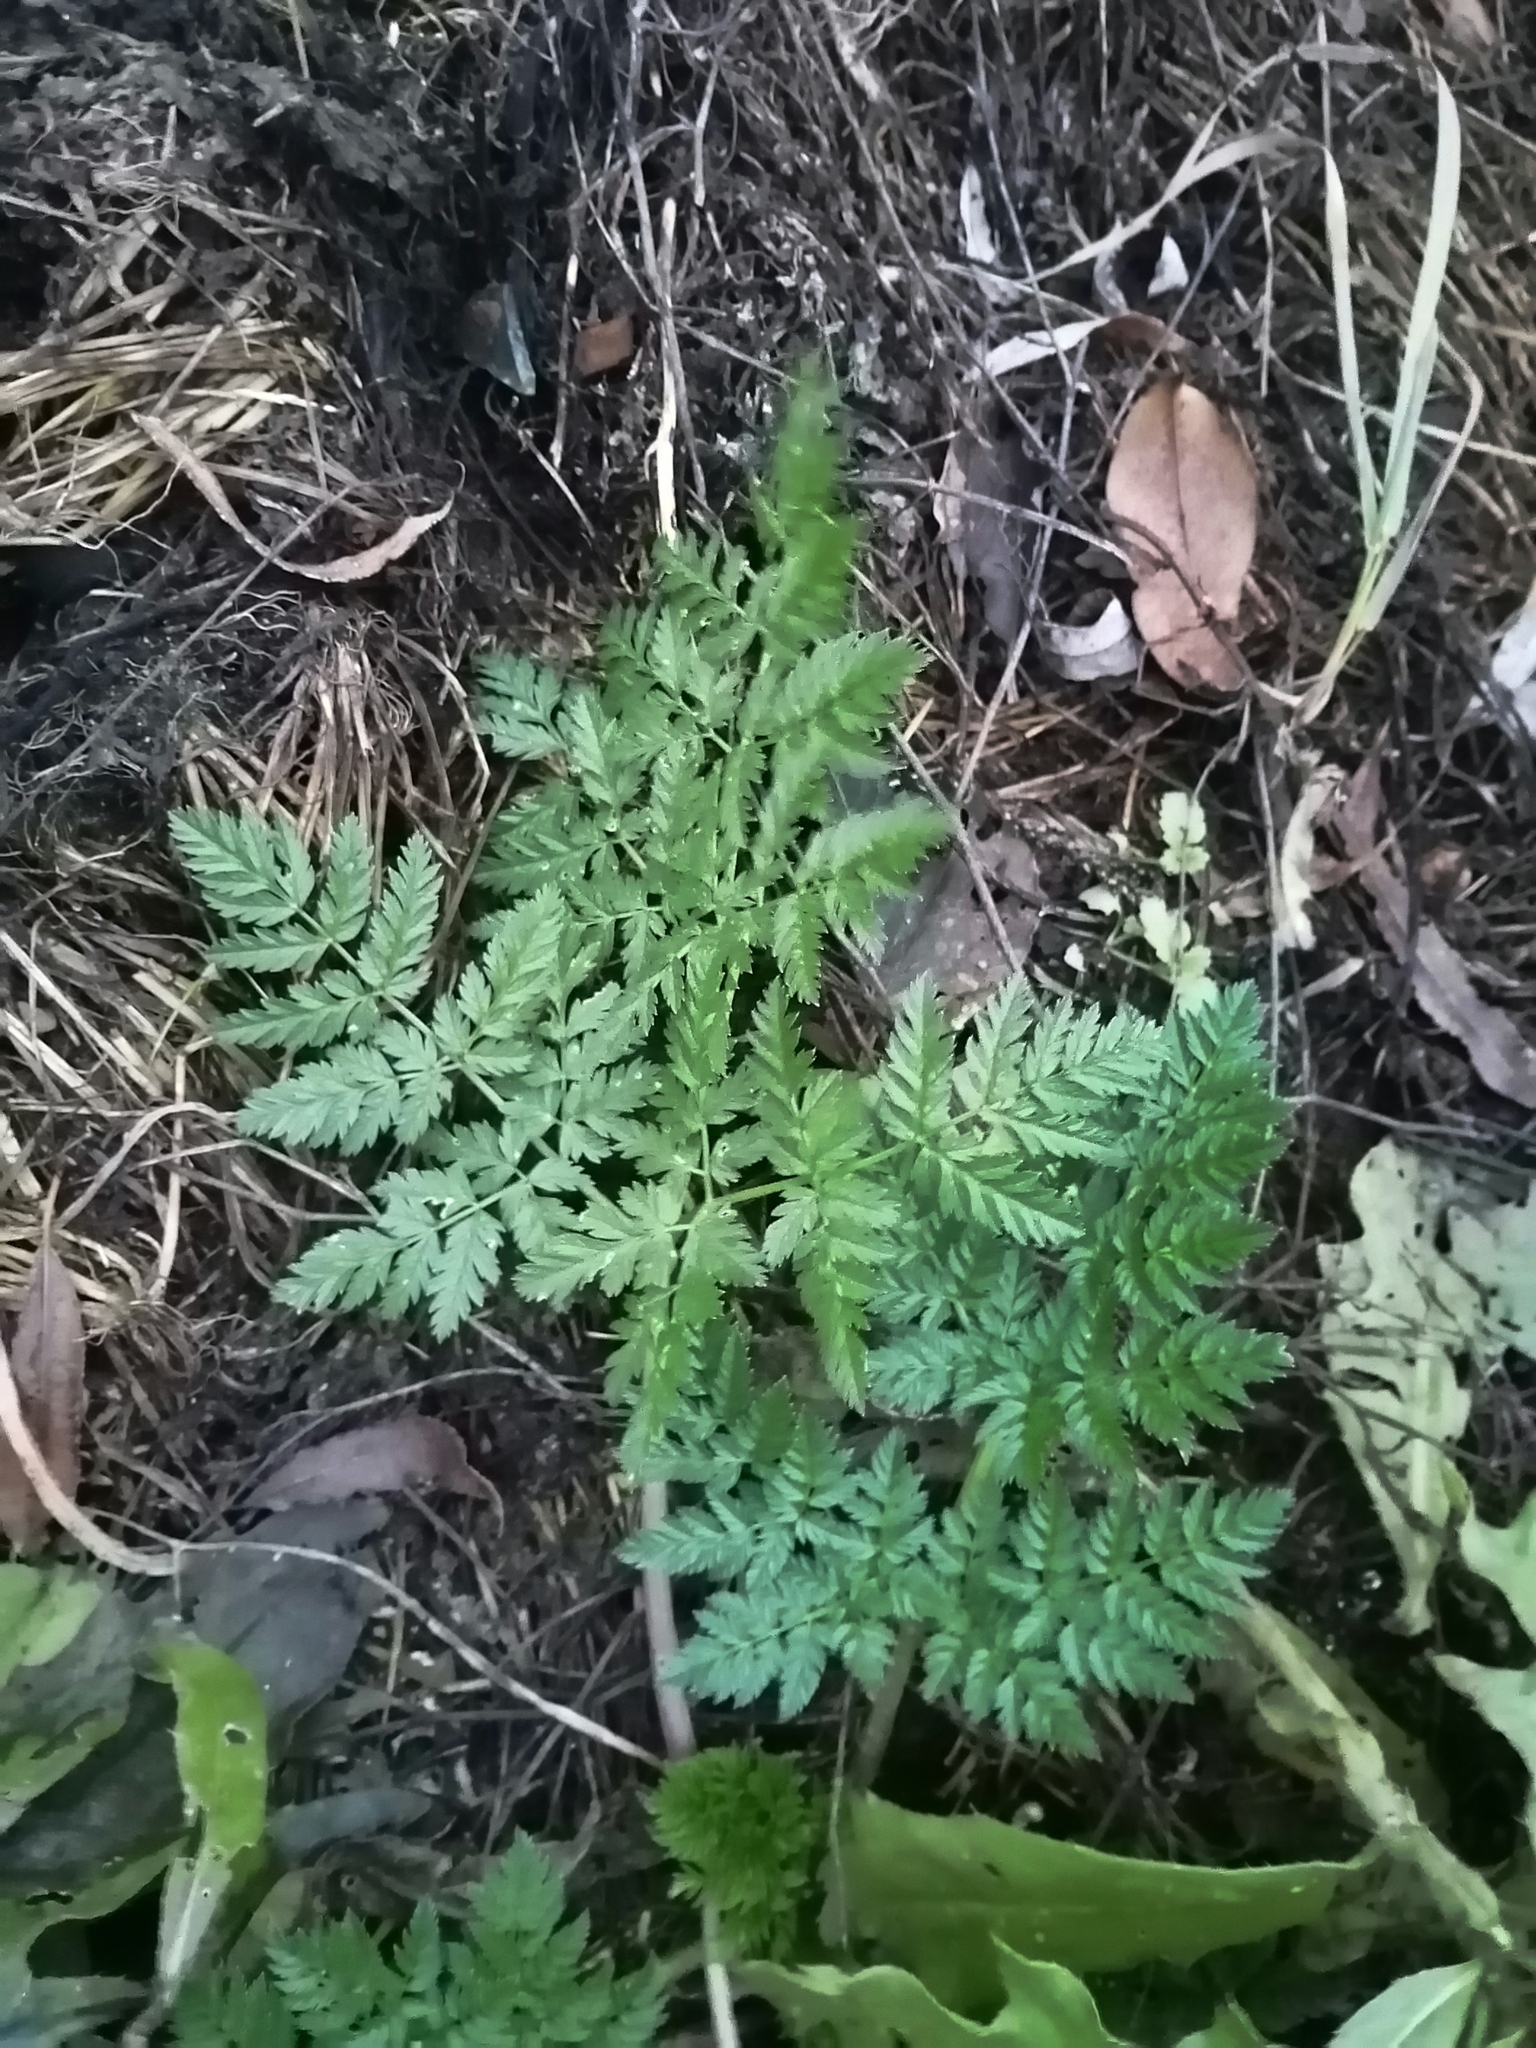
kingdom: Plantae
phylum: Tracheophyta
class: Magnoliopsida
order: Apiales
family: Apiaceae
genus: Anthriscus
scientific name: Anthriscus sylvestris
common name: Cow parsley
